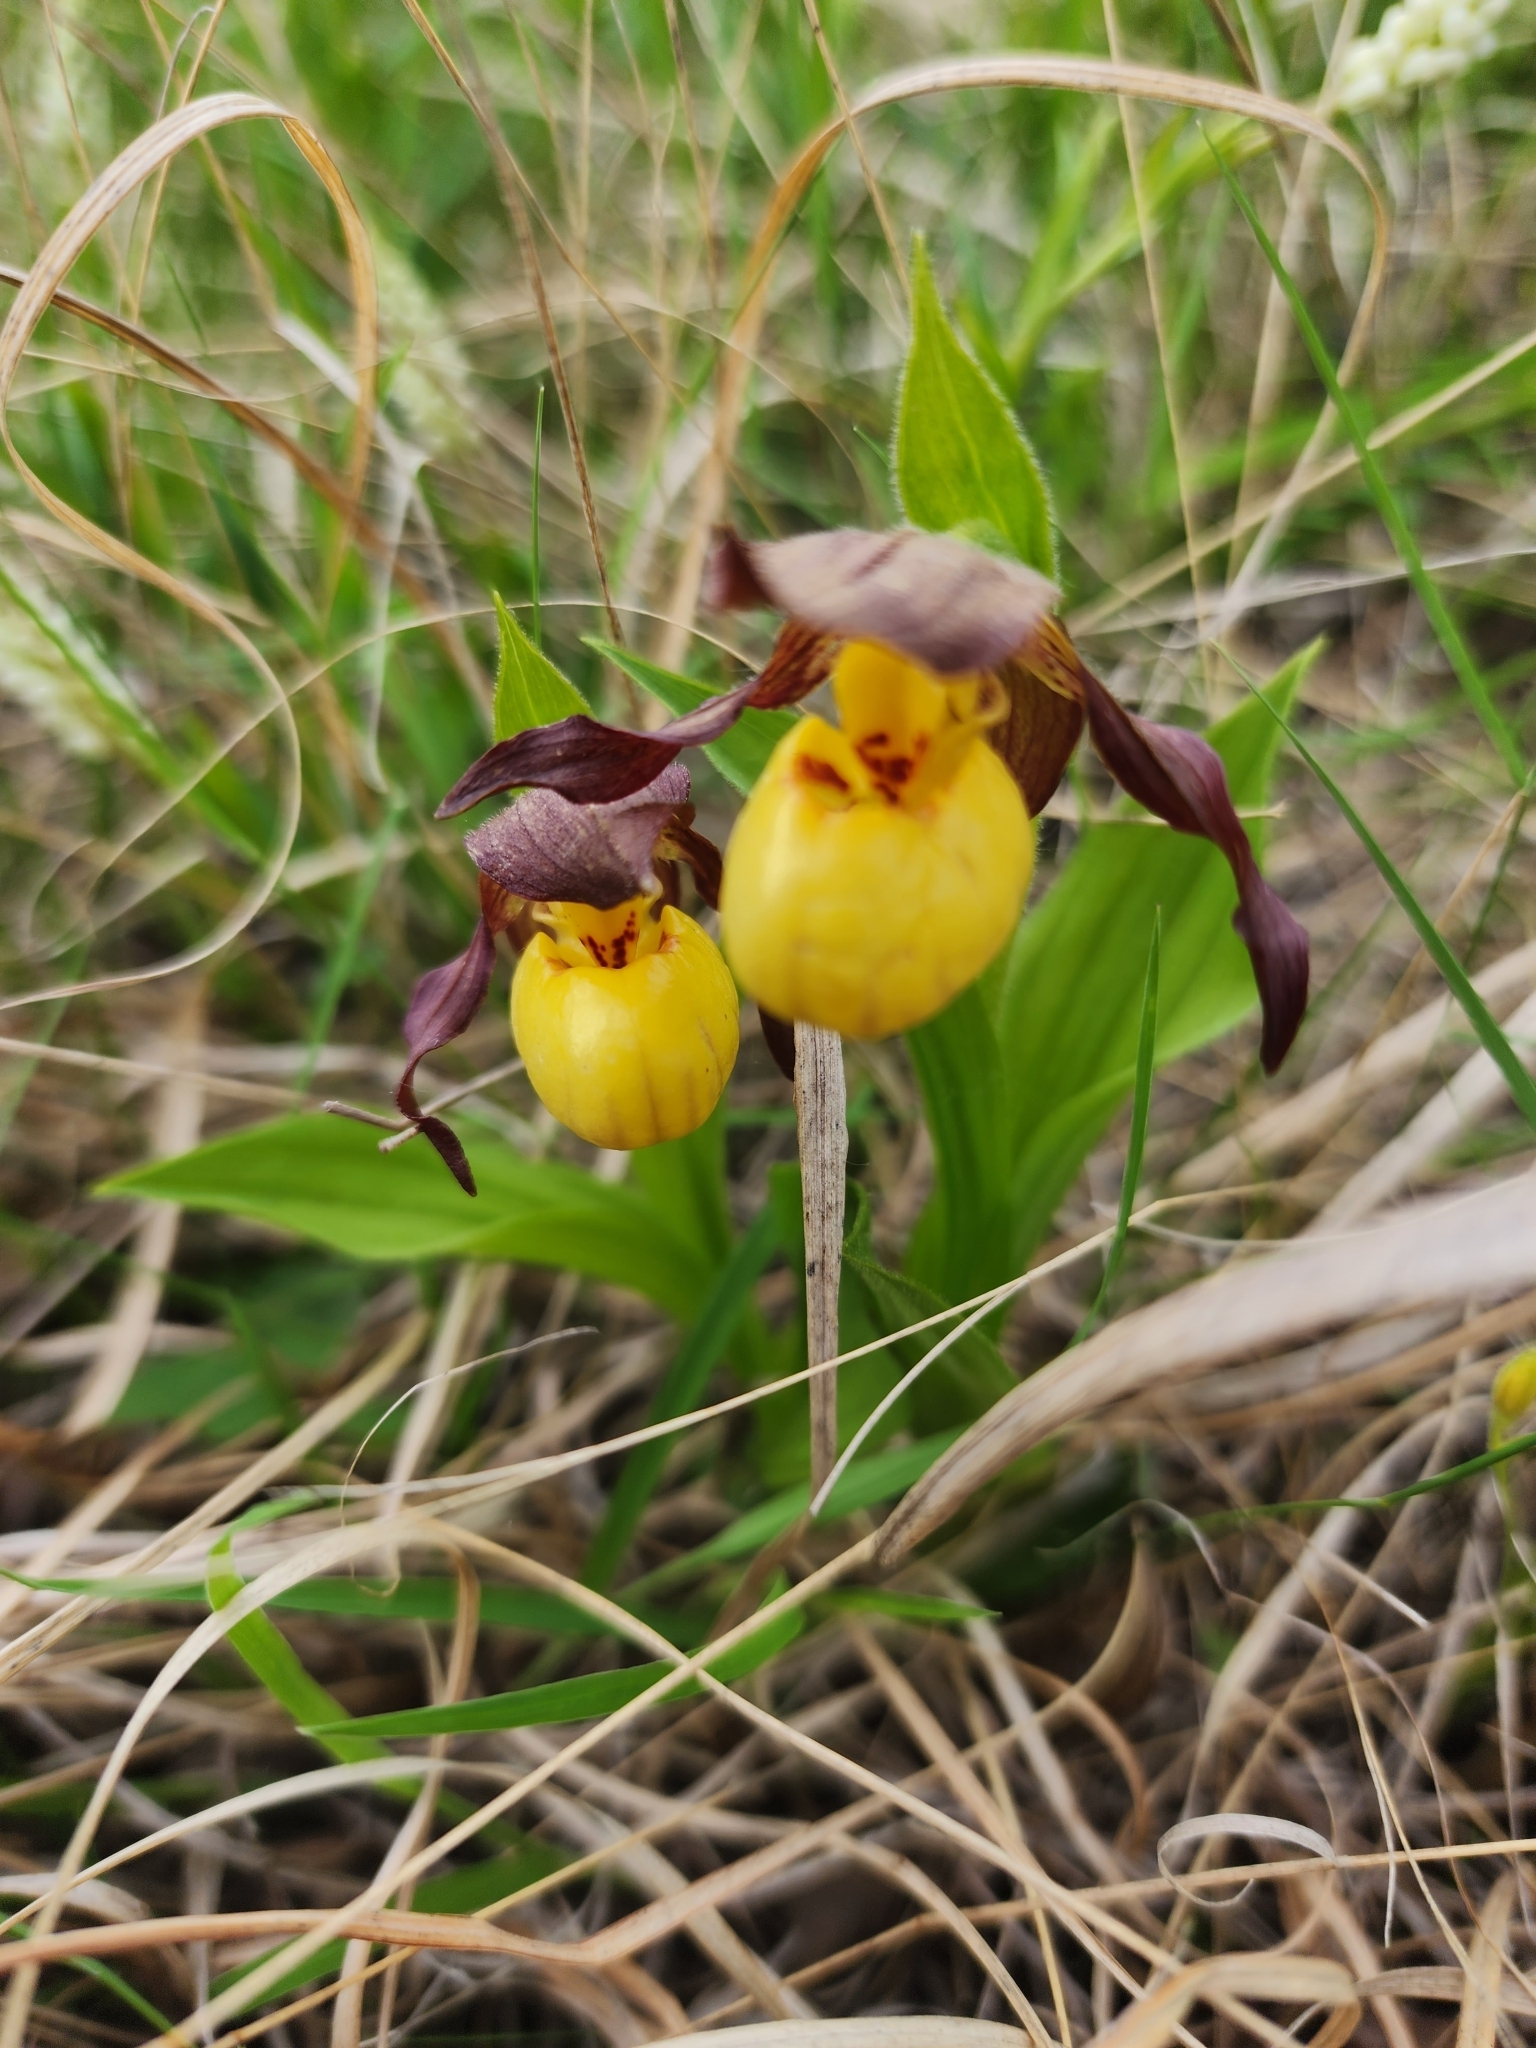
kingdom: Plantae
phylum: Tracheophyta
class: Liliopsida
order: Asparagales
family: Orchidaceae
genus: Cypripedium
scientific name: Cypripedium parviflorum
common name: American yellow lady's-slipper
